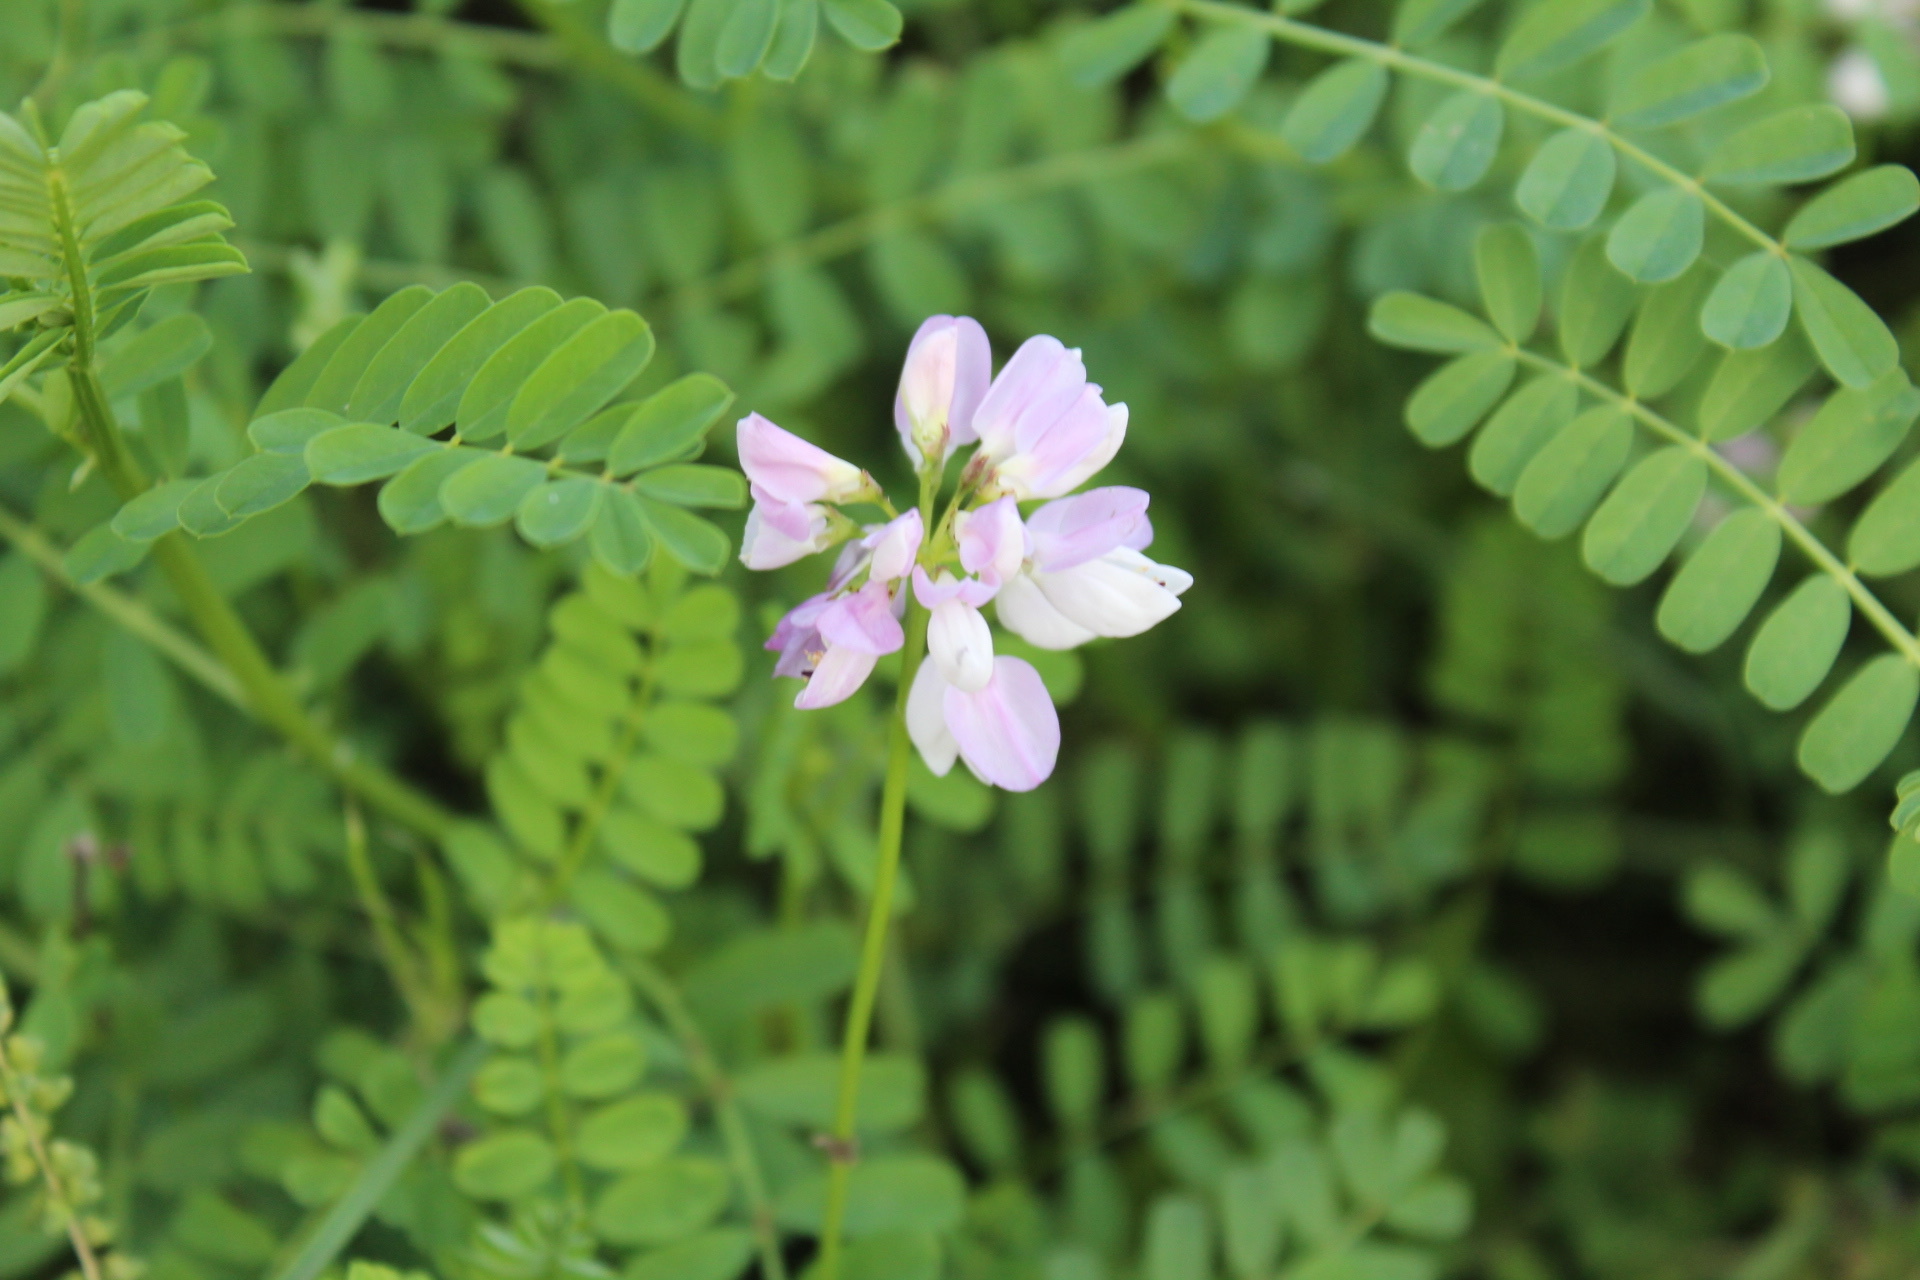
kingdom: Plantae
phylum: Tracheophyta
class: Magnoliopsida
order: Fabales
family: Fabaceae
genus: Coronilla
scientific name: Coronilla varia
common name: Crownvetch
